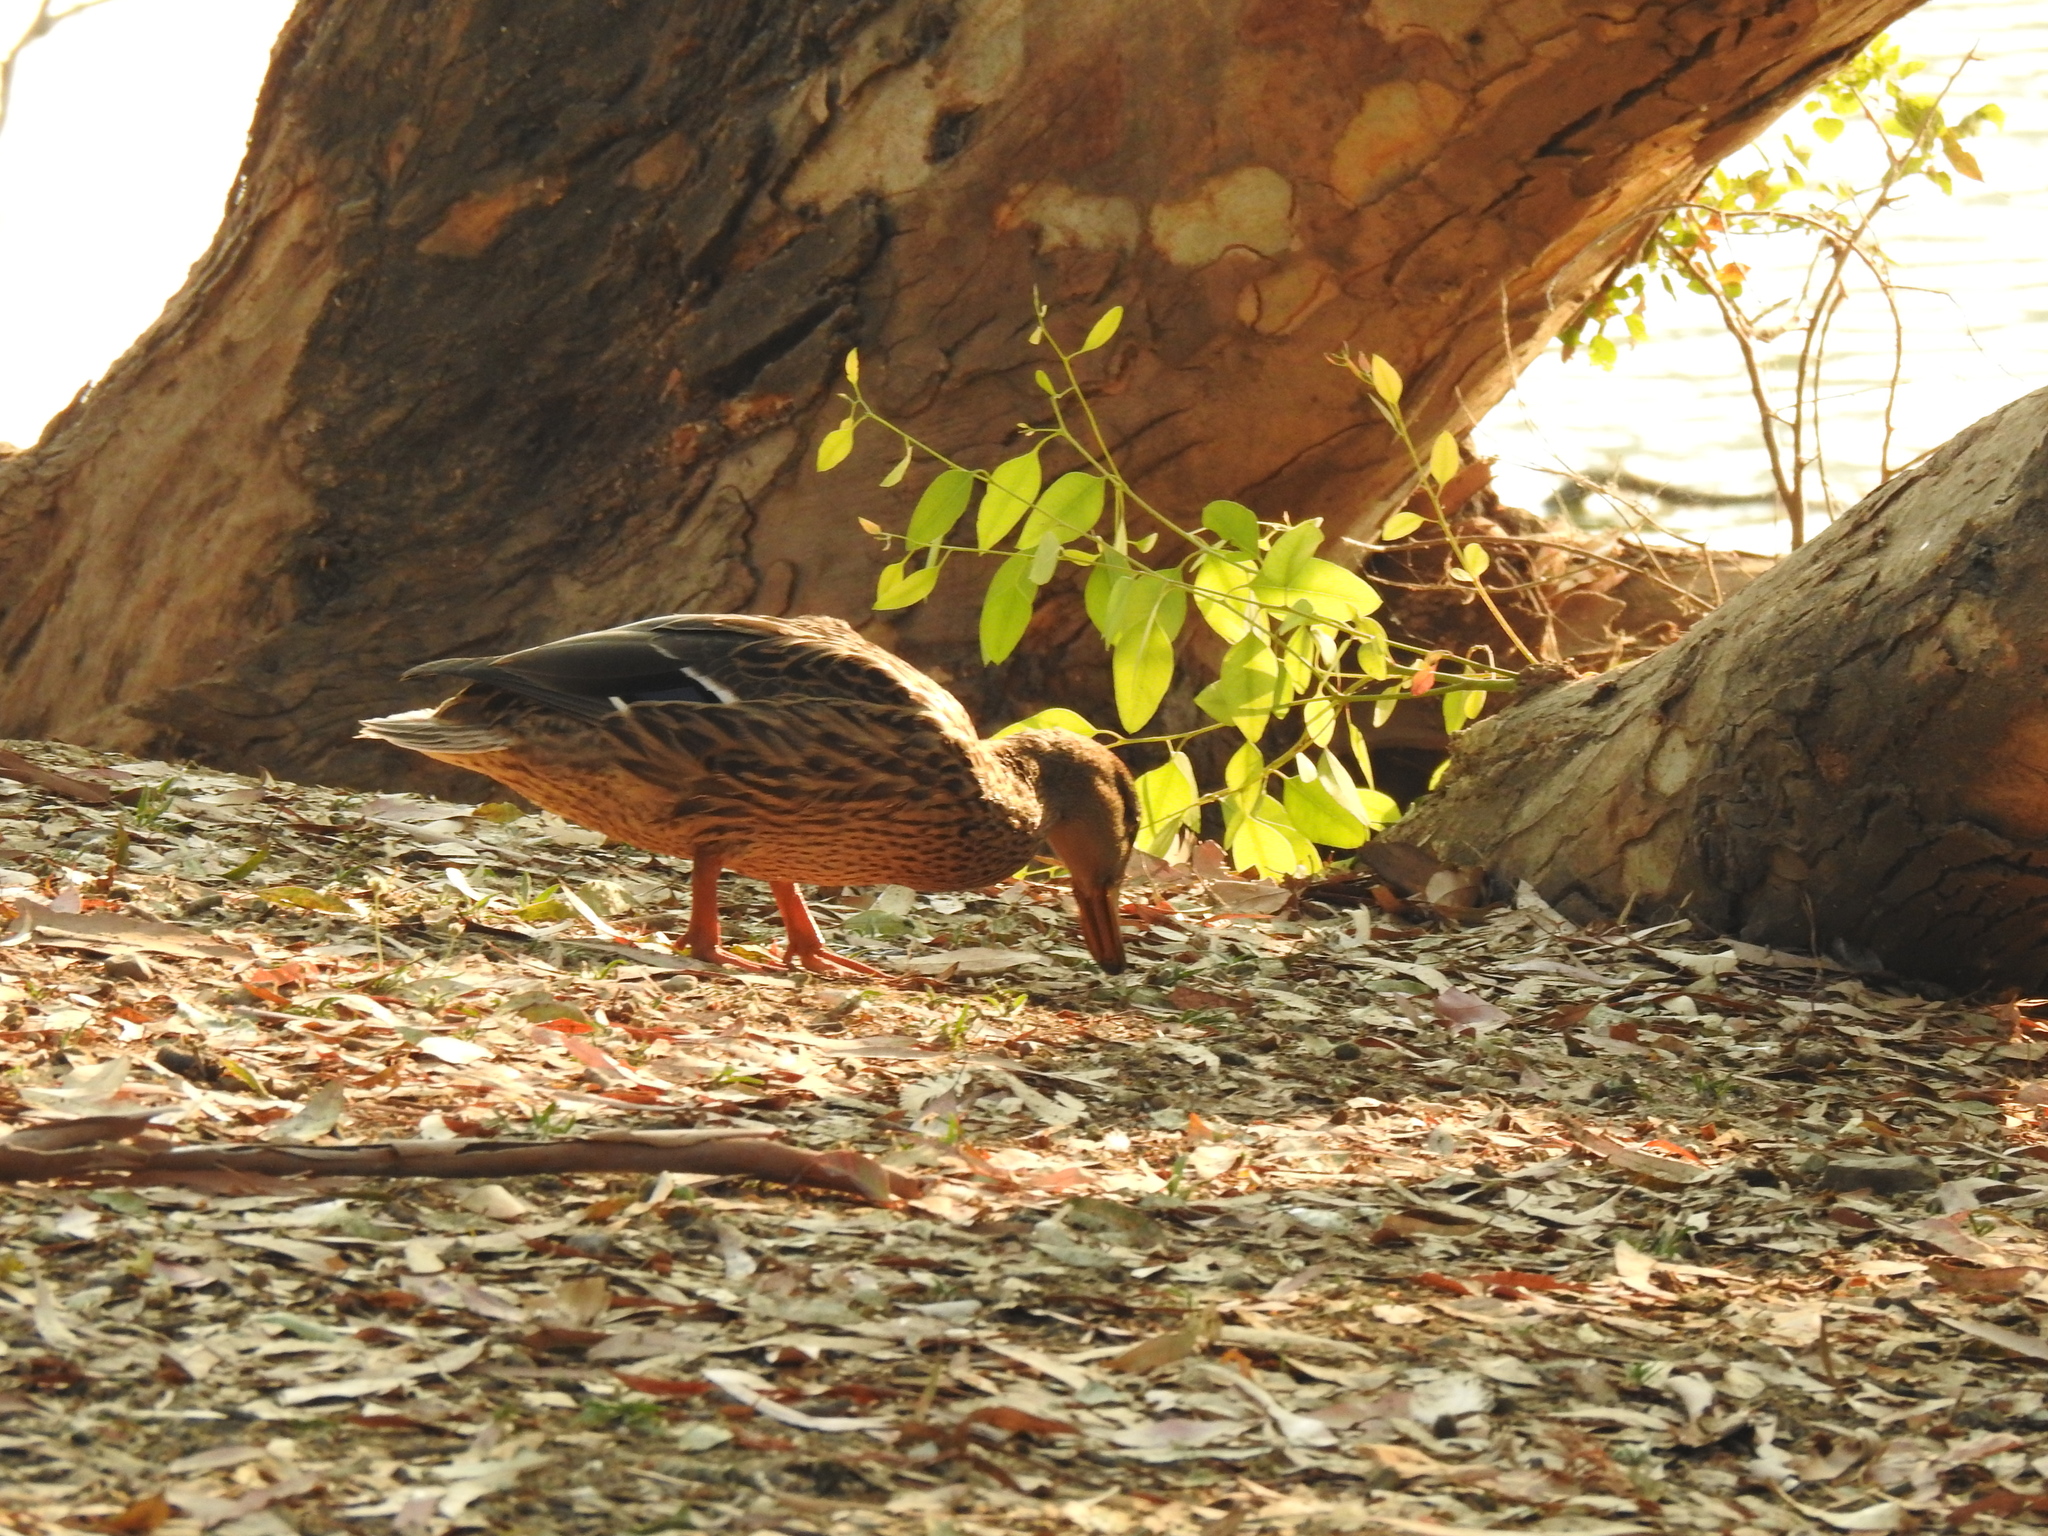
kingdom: Animalia
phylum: Chordata
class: Aves
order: Anseriformes
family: Anatidae
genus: Anas
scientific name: Anas platyrhynchos
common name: Mallard
